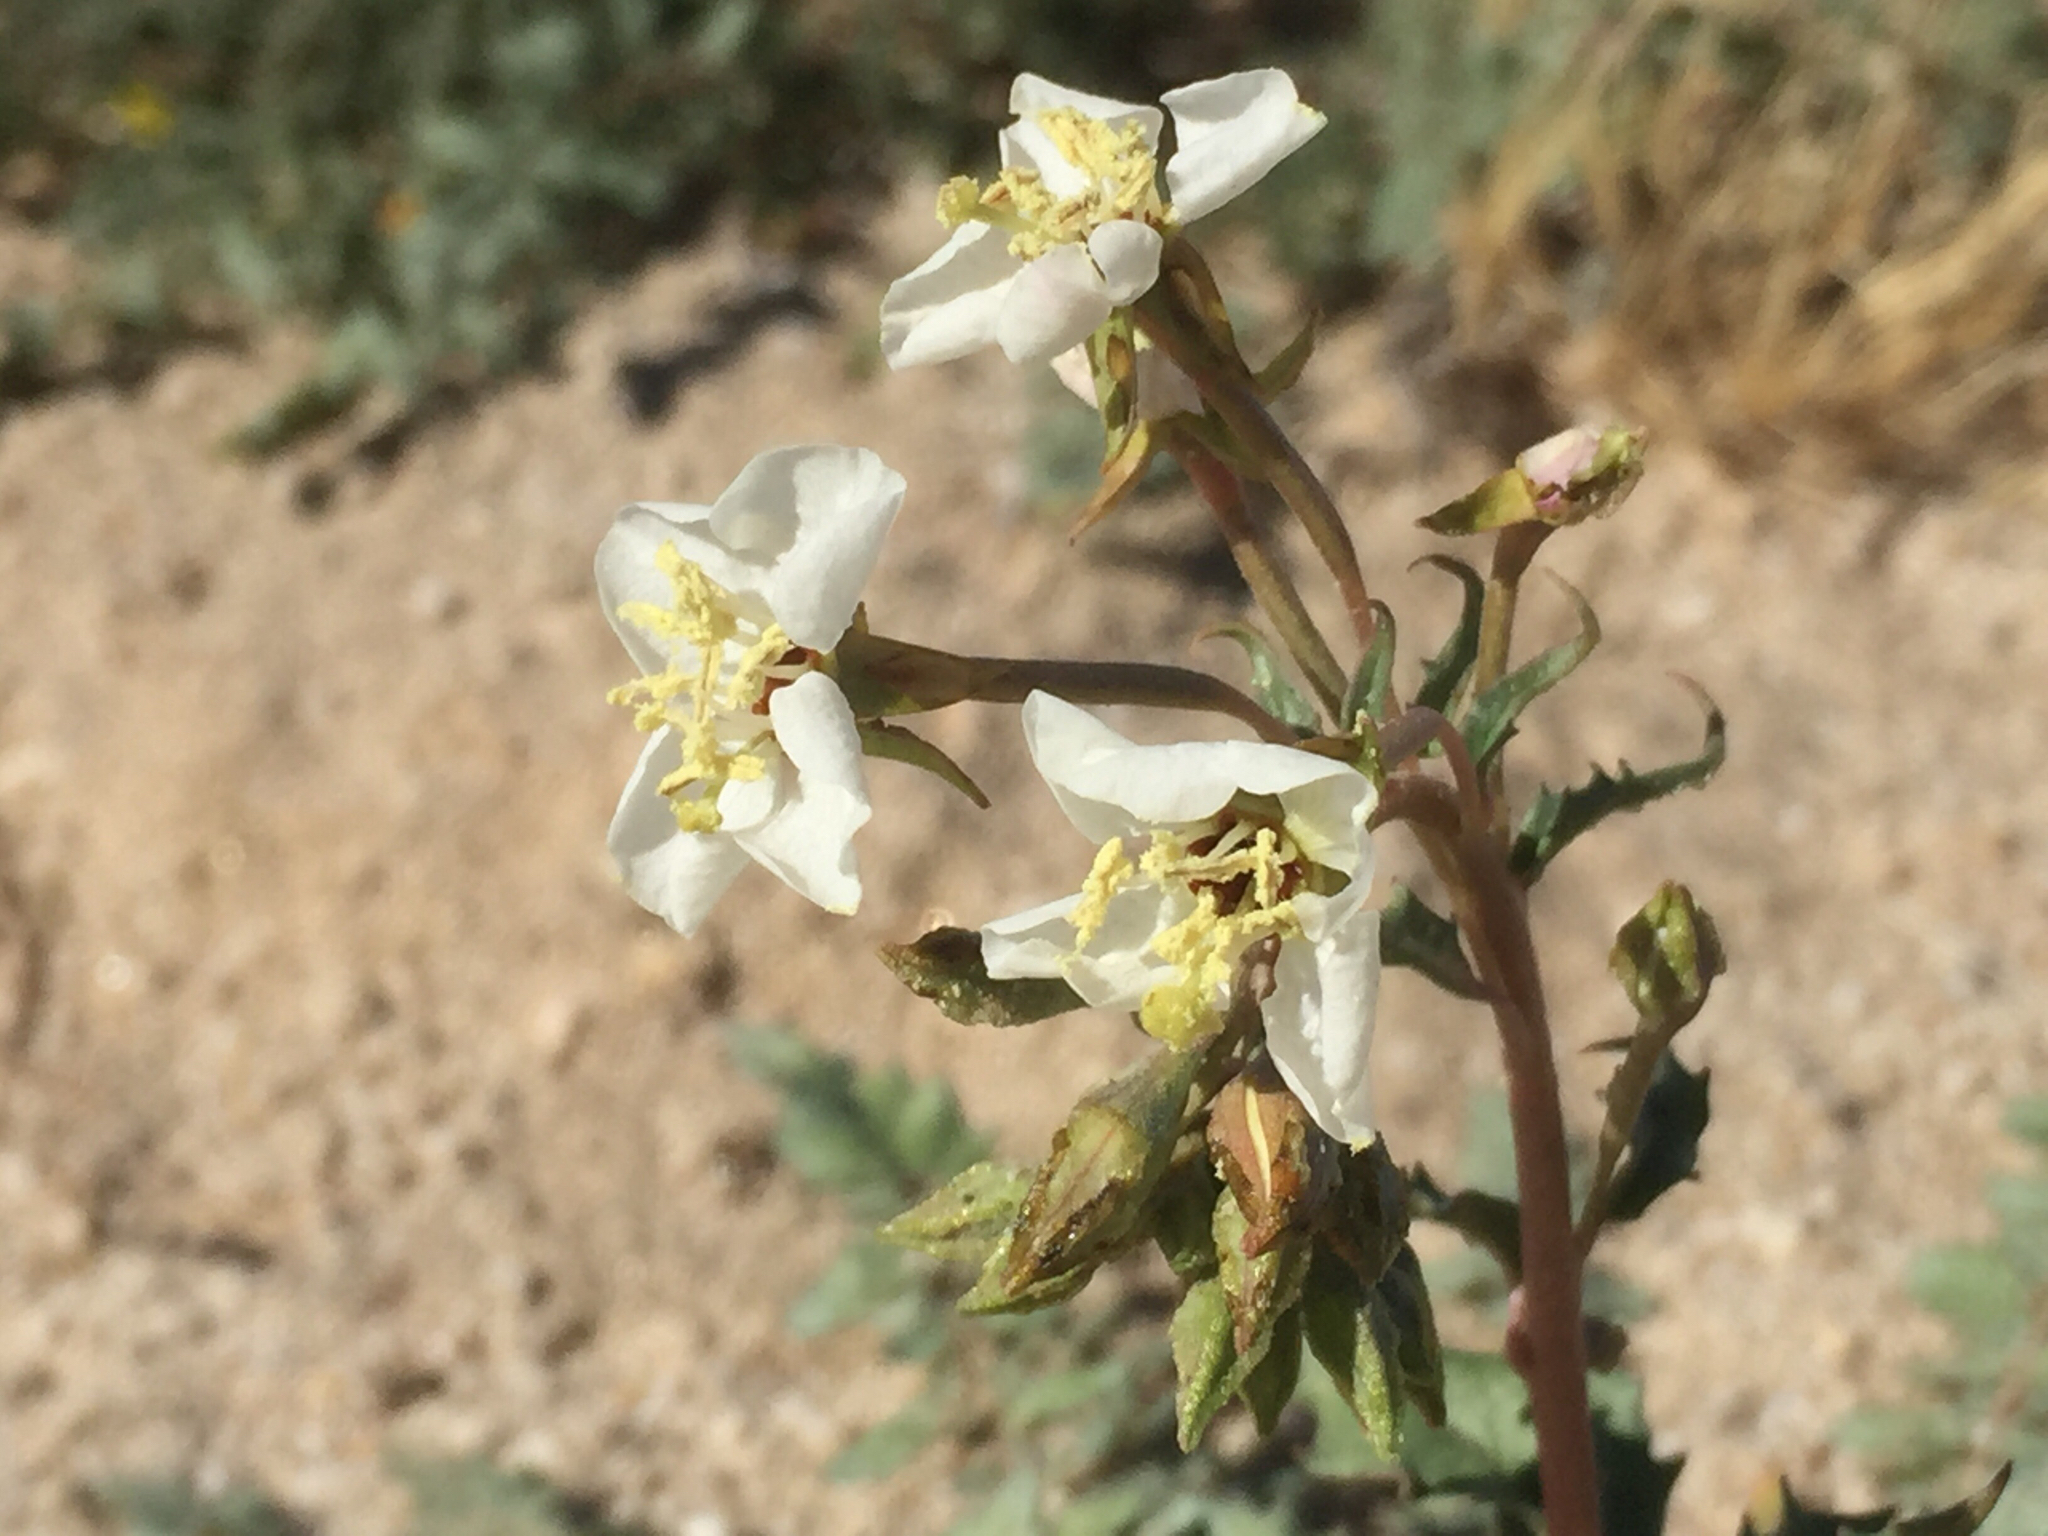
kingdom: Plantae
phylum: Tracheophyta
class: Magnoliopsida
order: Myrtales
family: Onagraceae
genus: Chylismia
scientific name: Chylismia claviformis
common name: Browneyes
